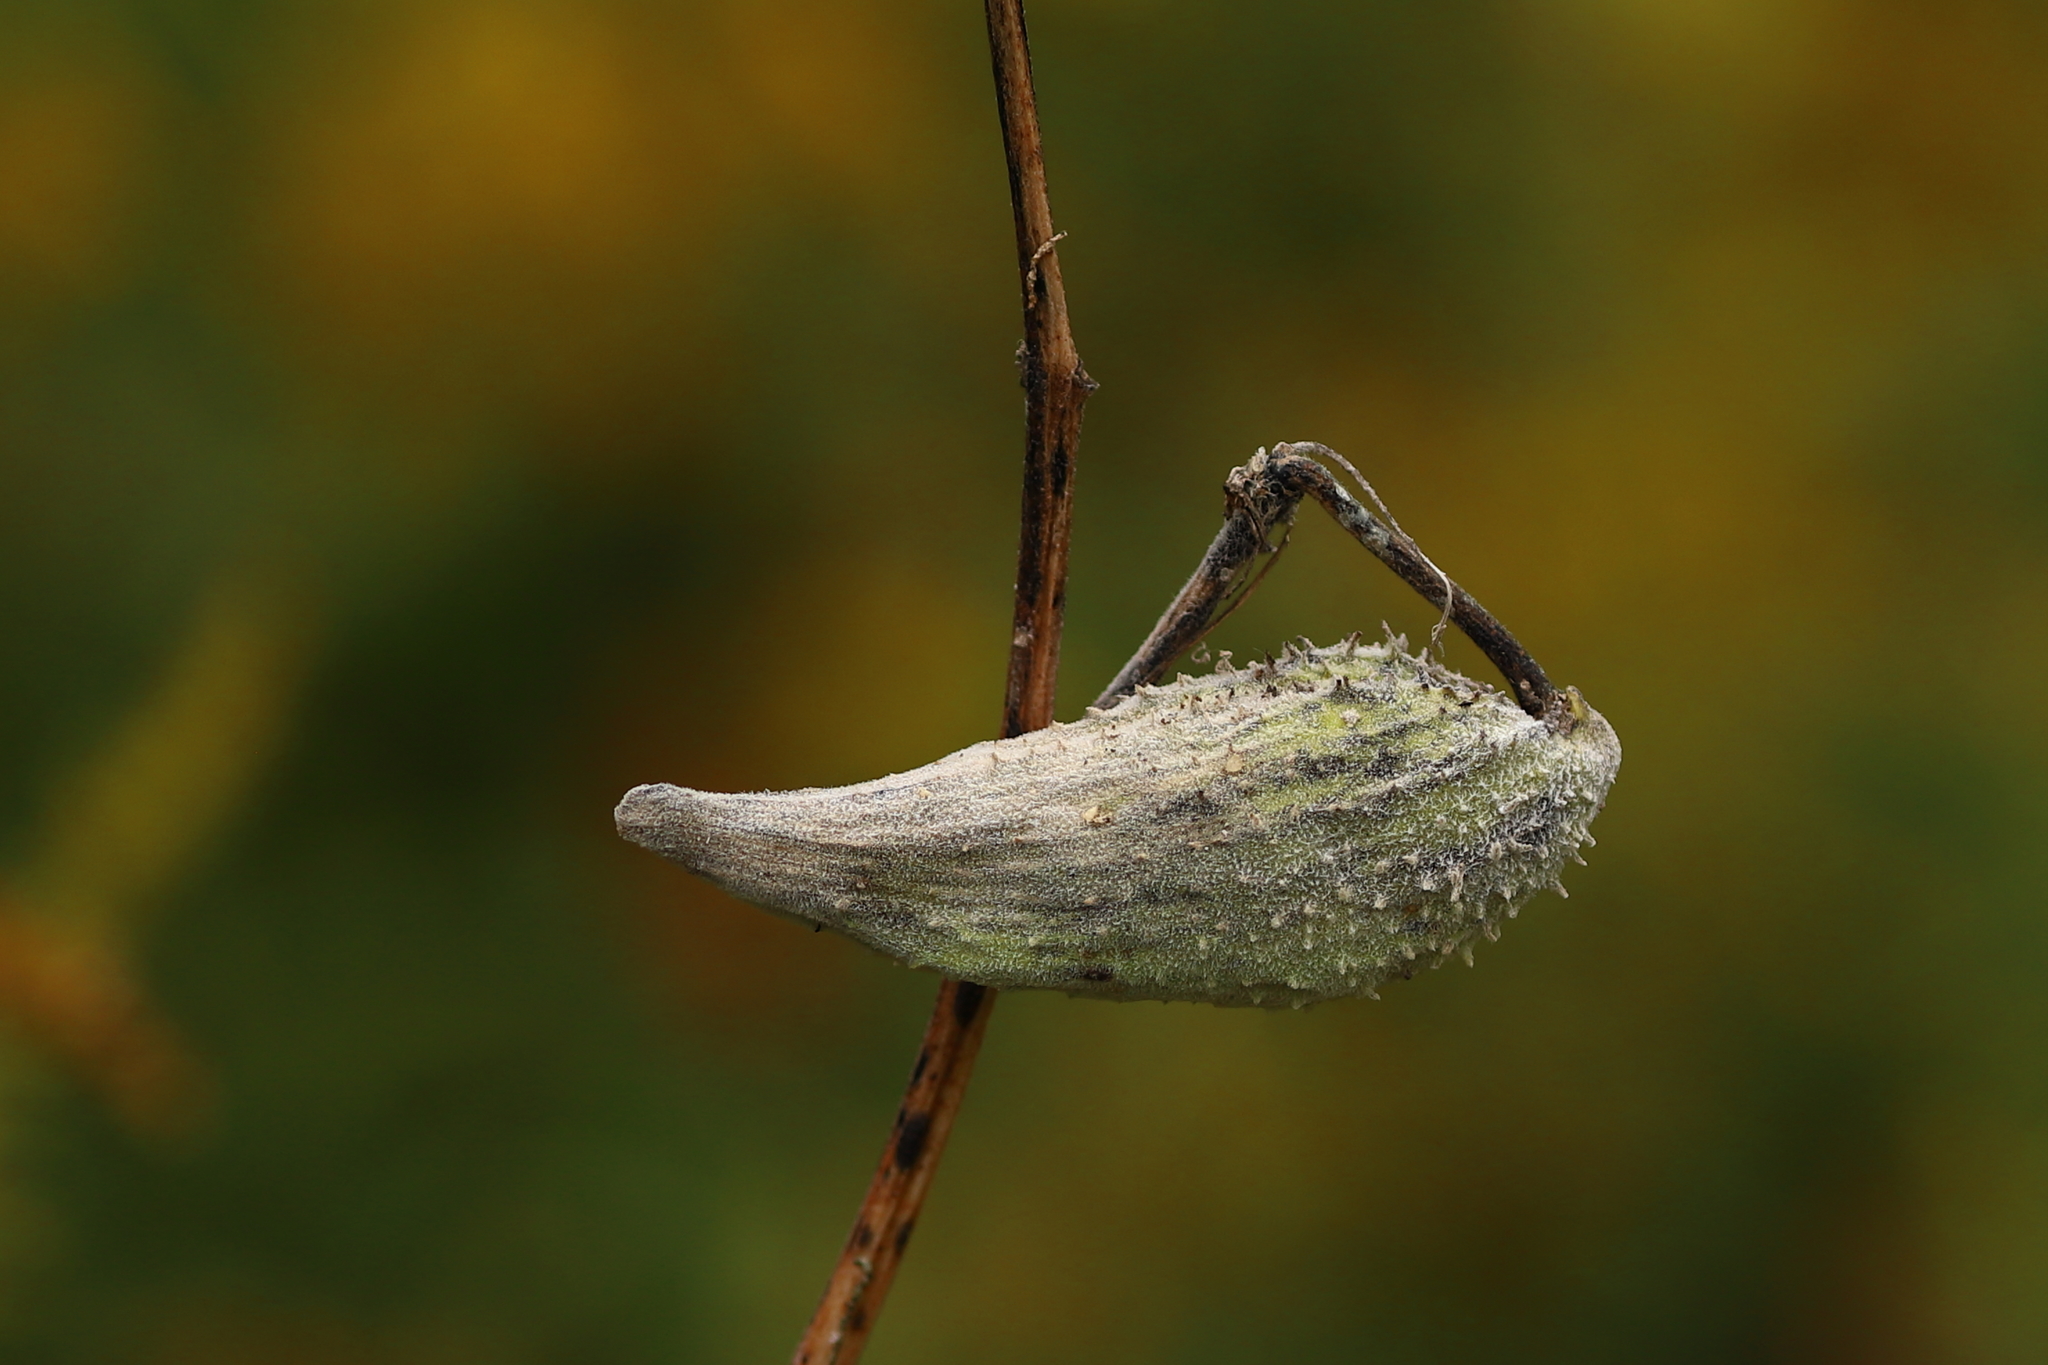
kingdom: Plantae
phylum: Tracheophyta
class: Magnoliopsida
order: Gentianales
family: Apocynaceae
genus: Asclepias
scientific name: Asclepias syriaca
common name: Common milkweed
